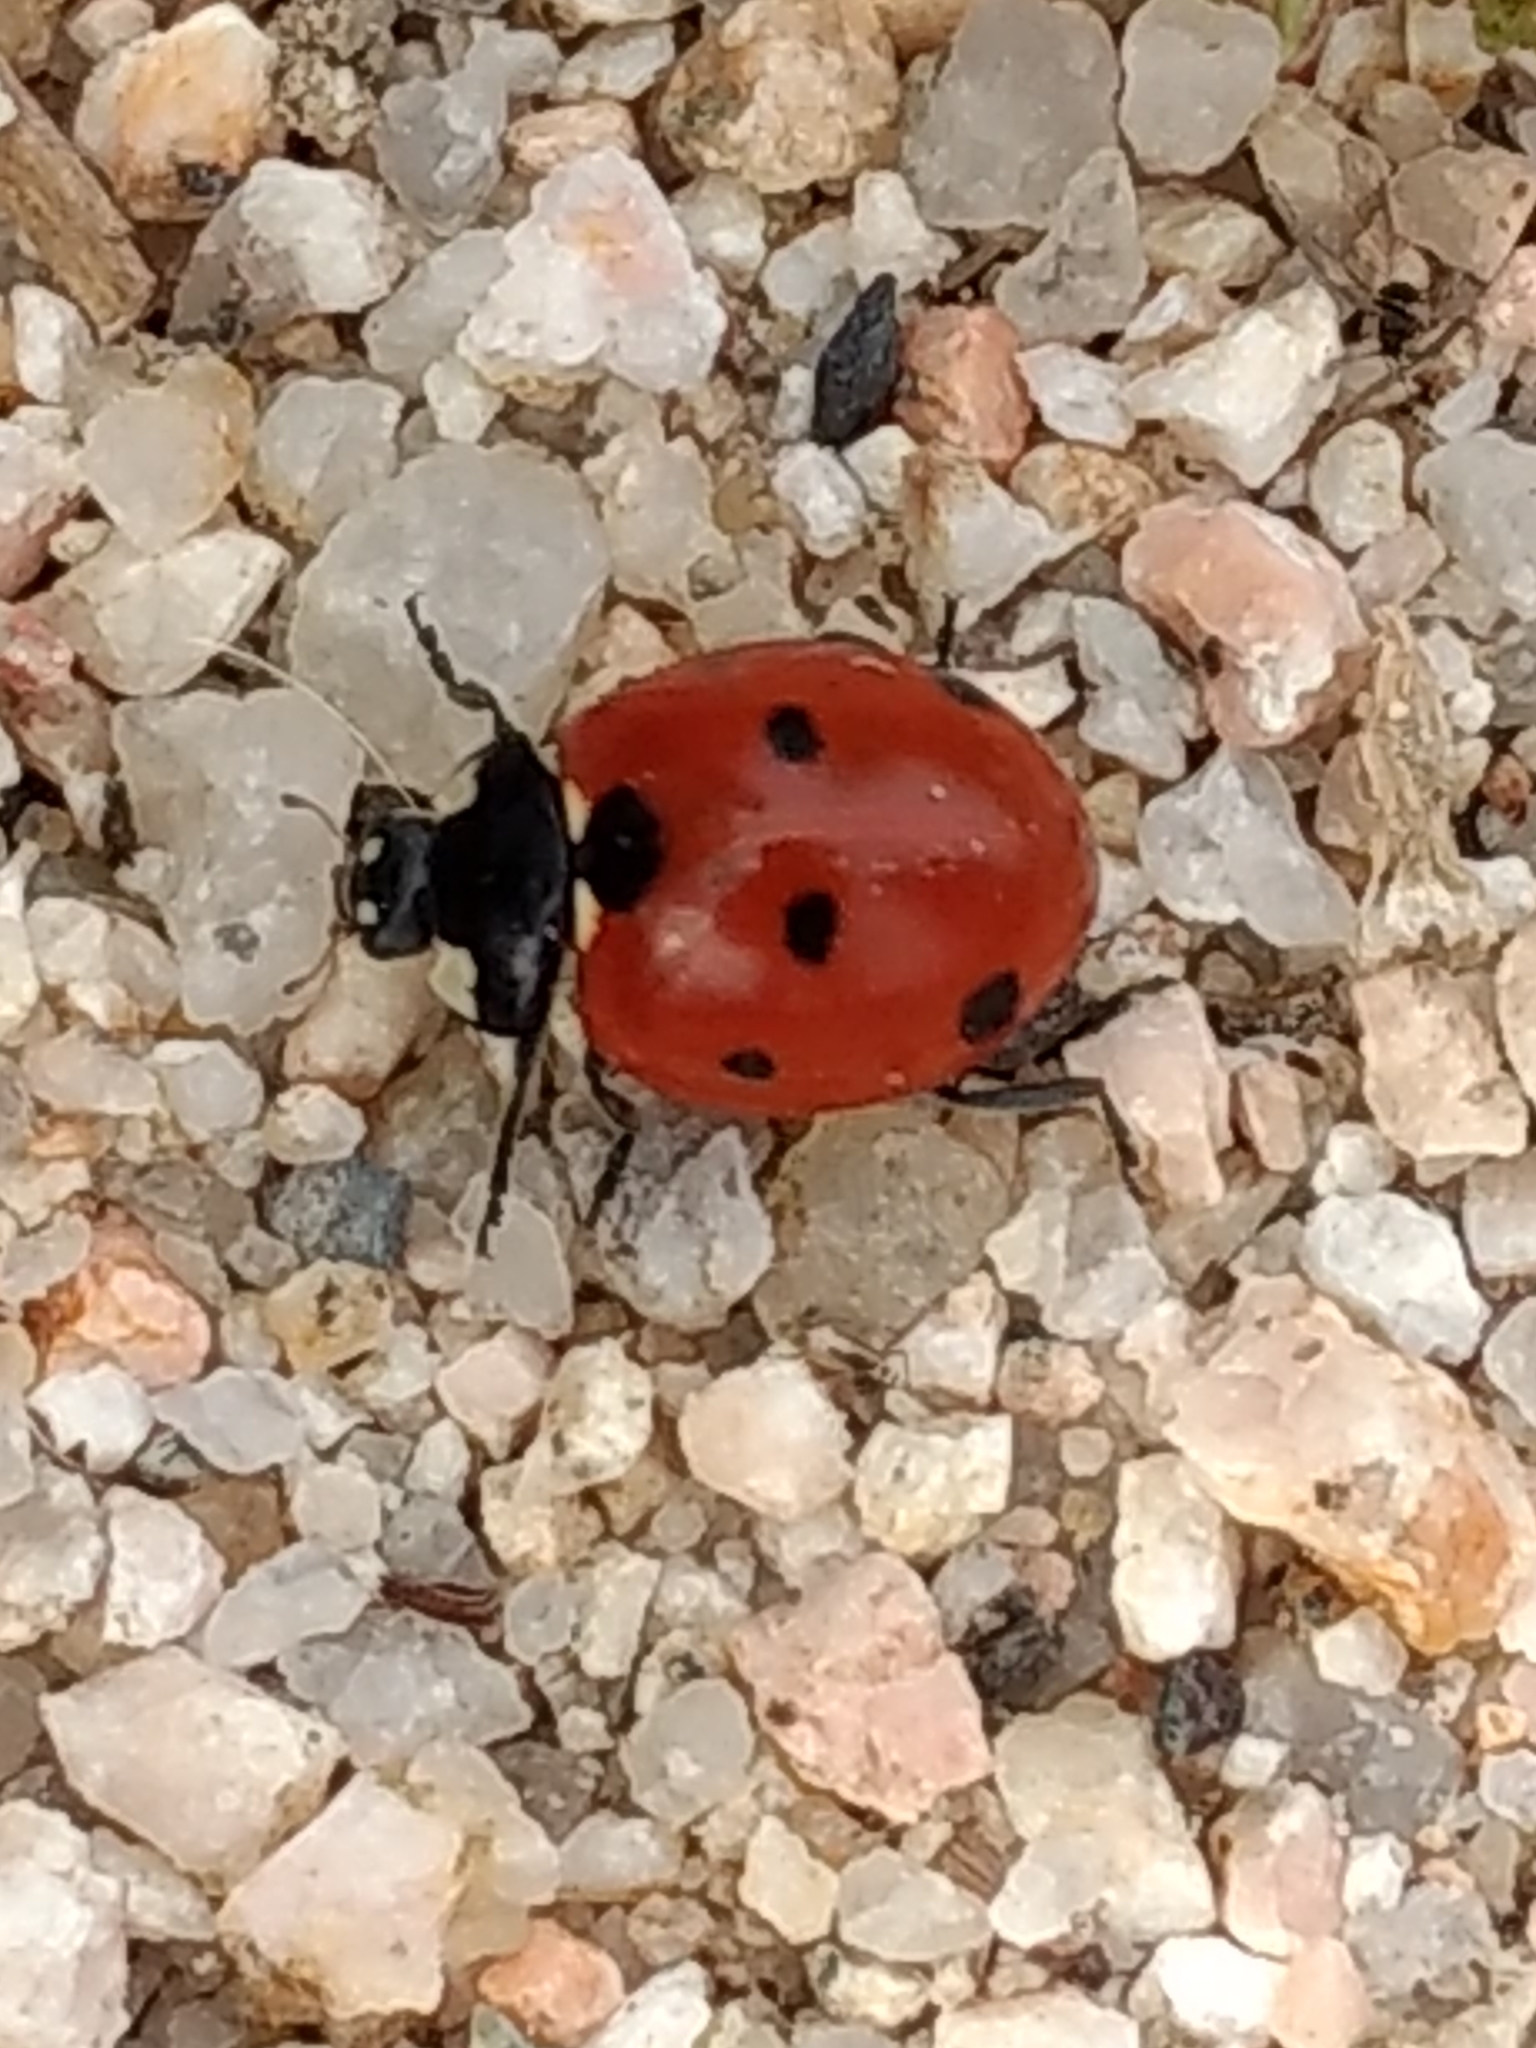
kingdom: Animalia
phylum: Arthropoda
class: Insecta
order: Coleoptera
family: Coccinellidae
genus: Coccinella
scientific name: Coccinella septempunctata
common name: Sevenspotted lady beetle
